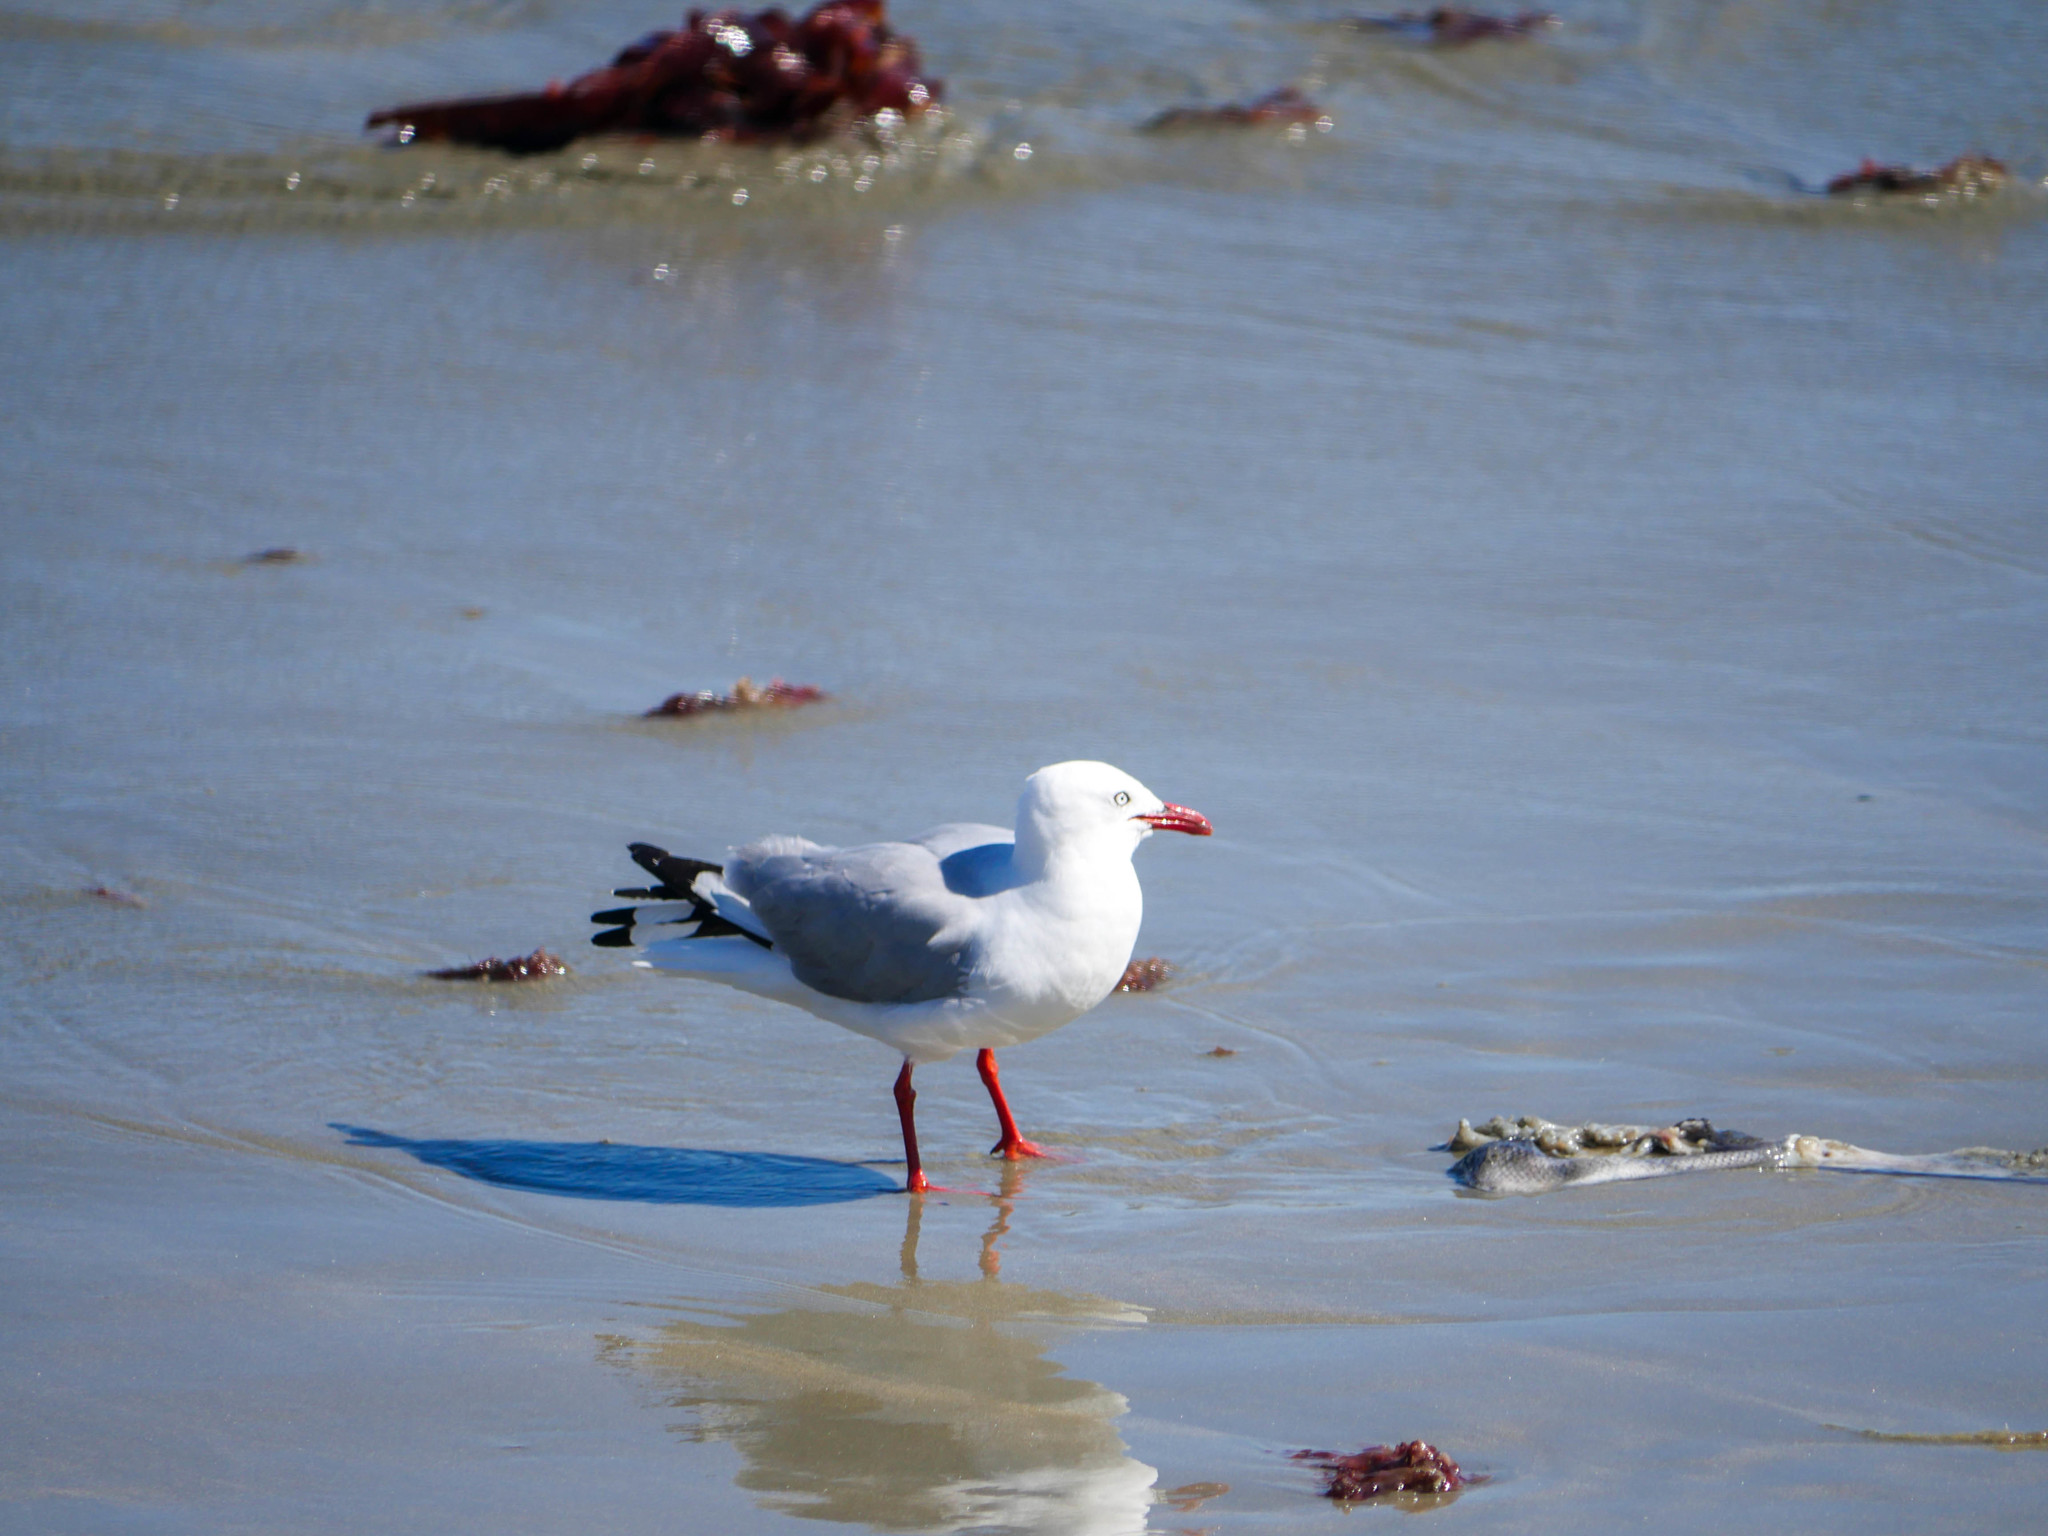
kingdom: Animalia
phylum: Chordata
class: Aves
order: Charadriiformes
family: Laridae
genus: Chroicocephalus
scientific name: Chroicocephalus novaehollandiae
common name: Silver gull
